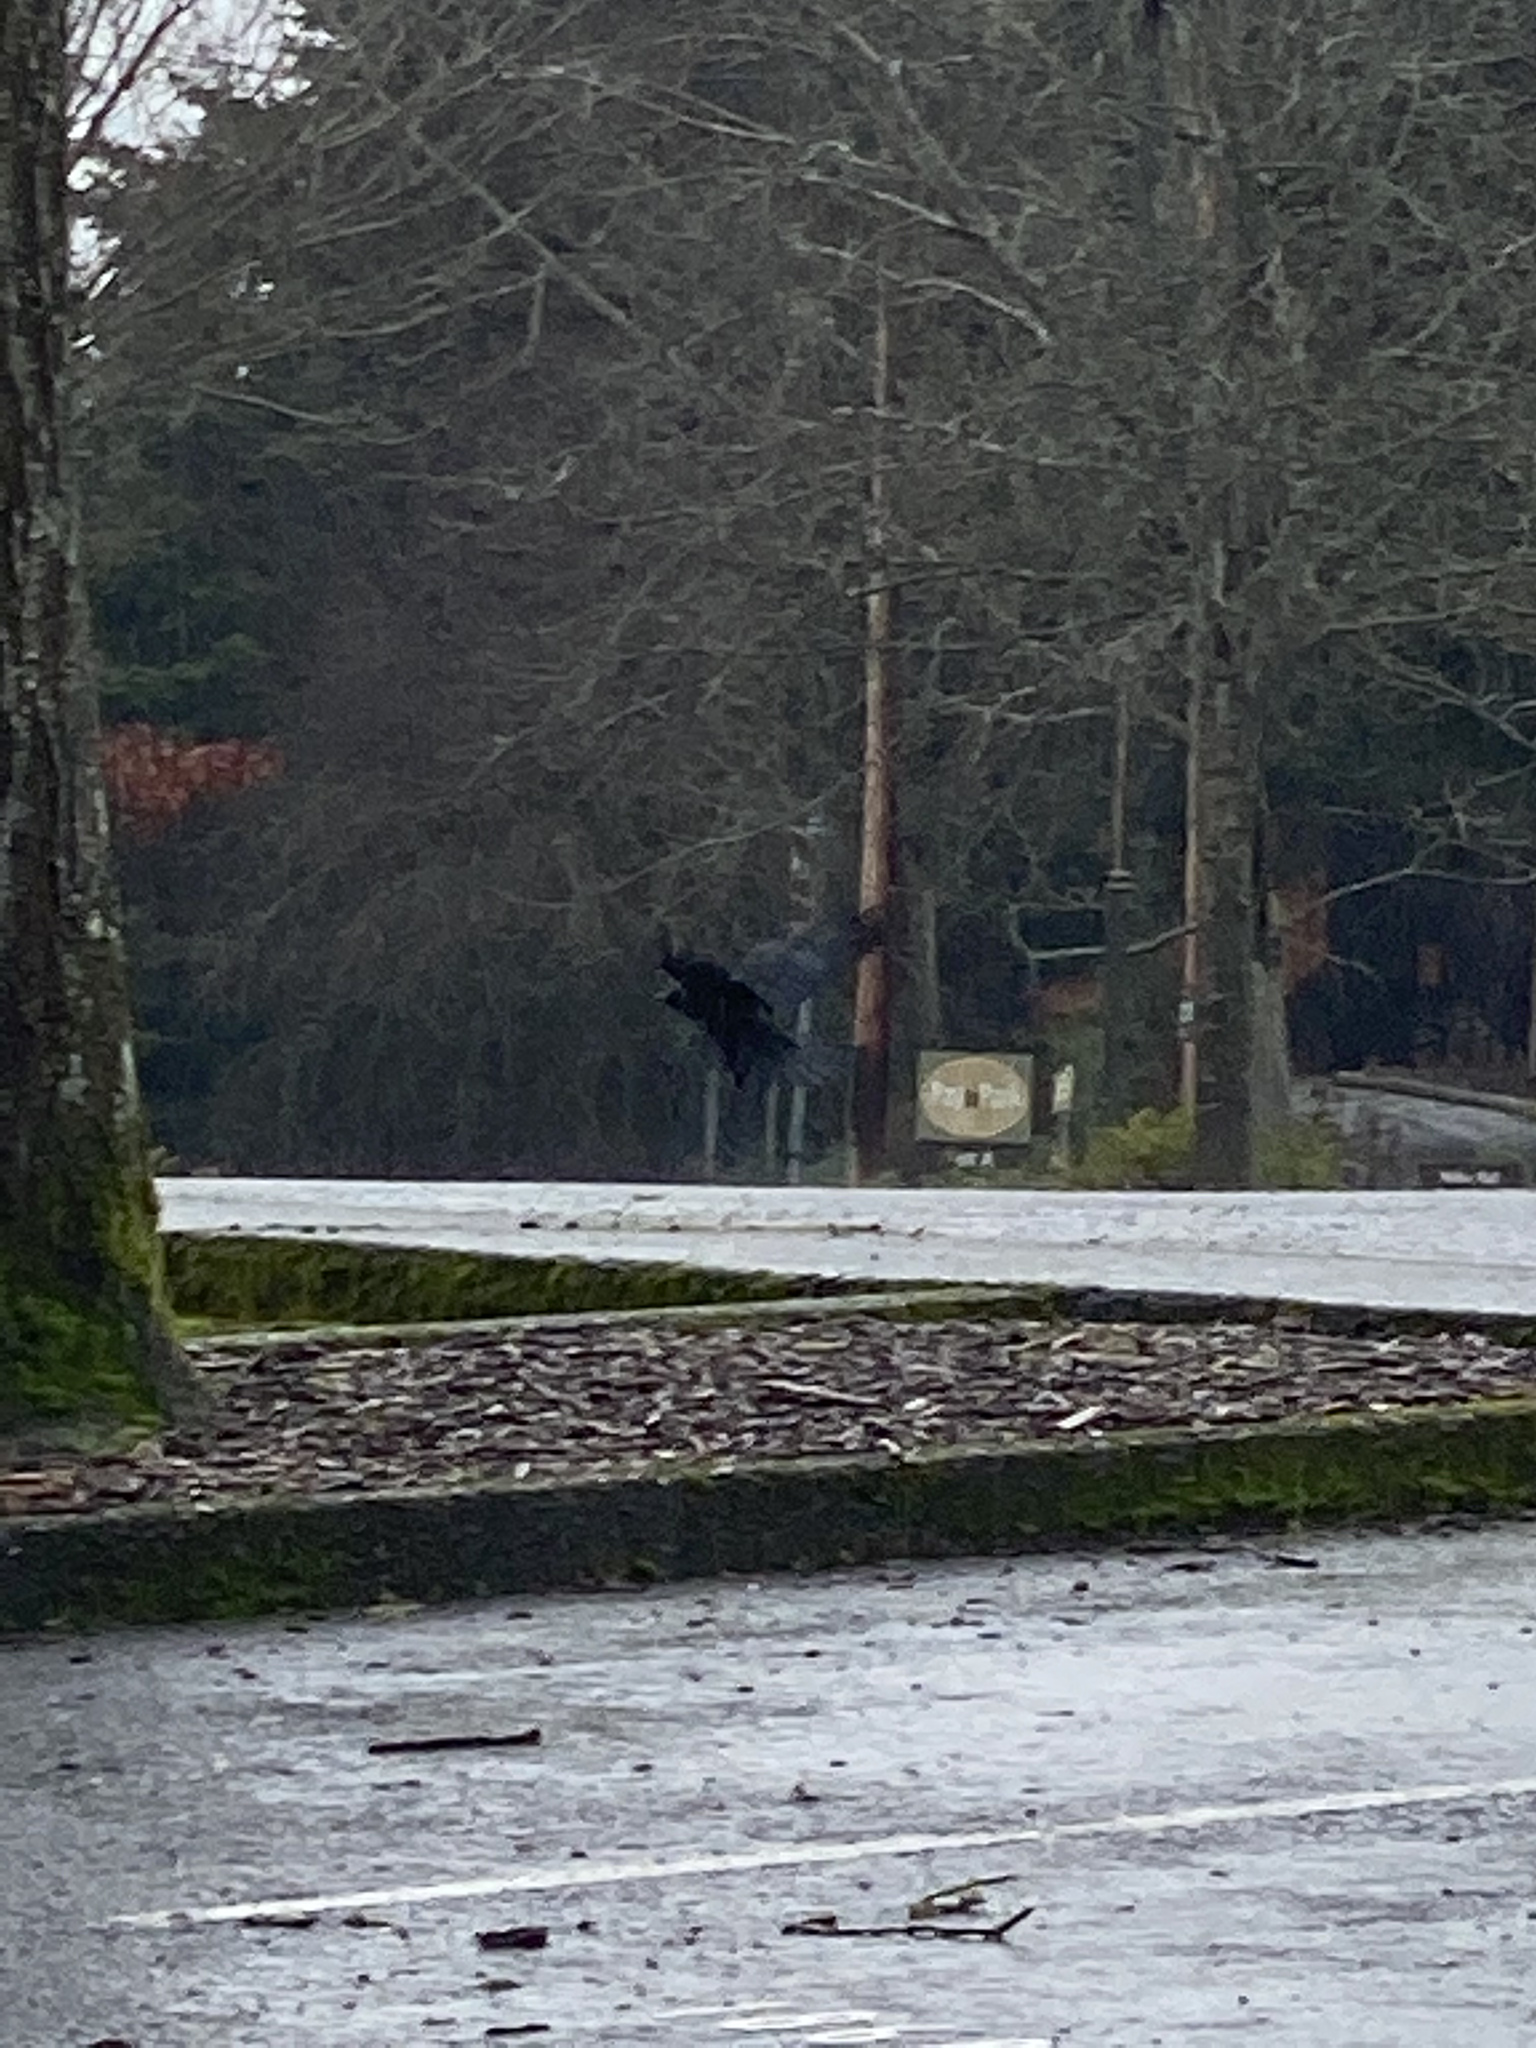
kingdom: Animalia
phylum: Chordata
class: Aves
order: Passeriformes
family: Corvidae
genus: Corvus
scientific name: Corvus brachyrhynchos
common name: American crow
